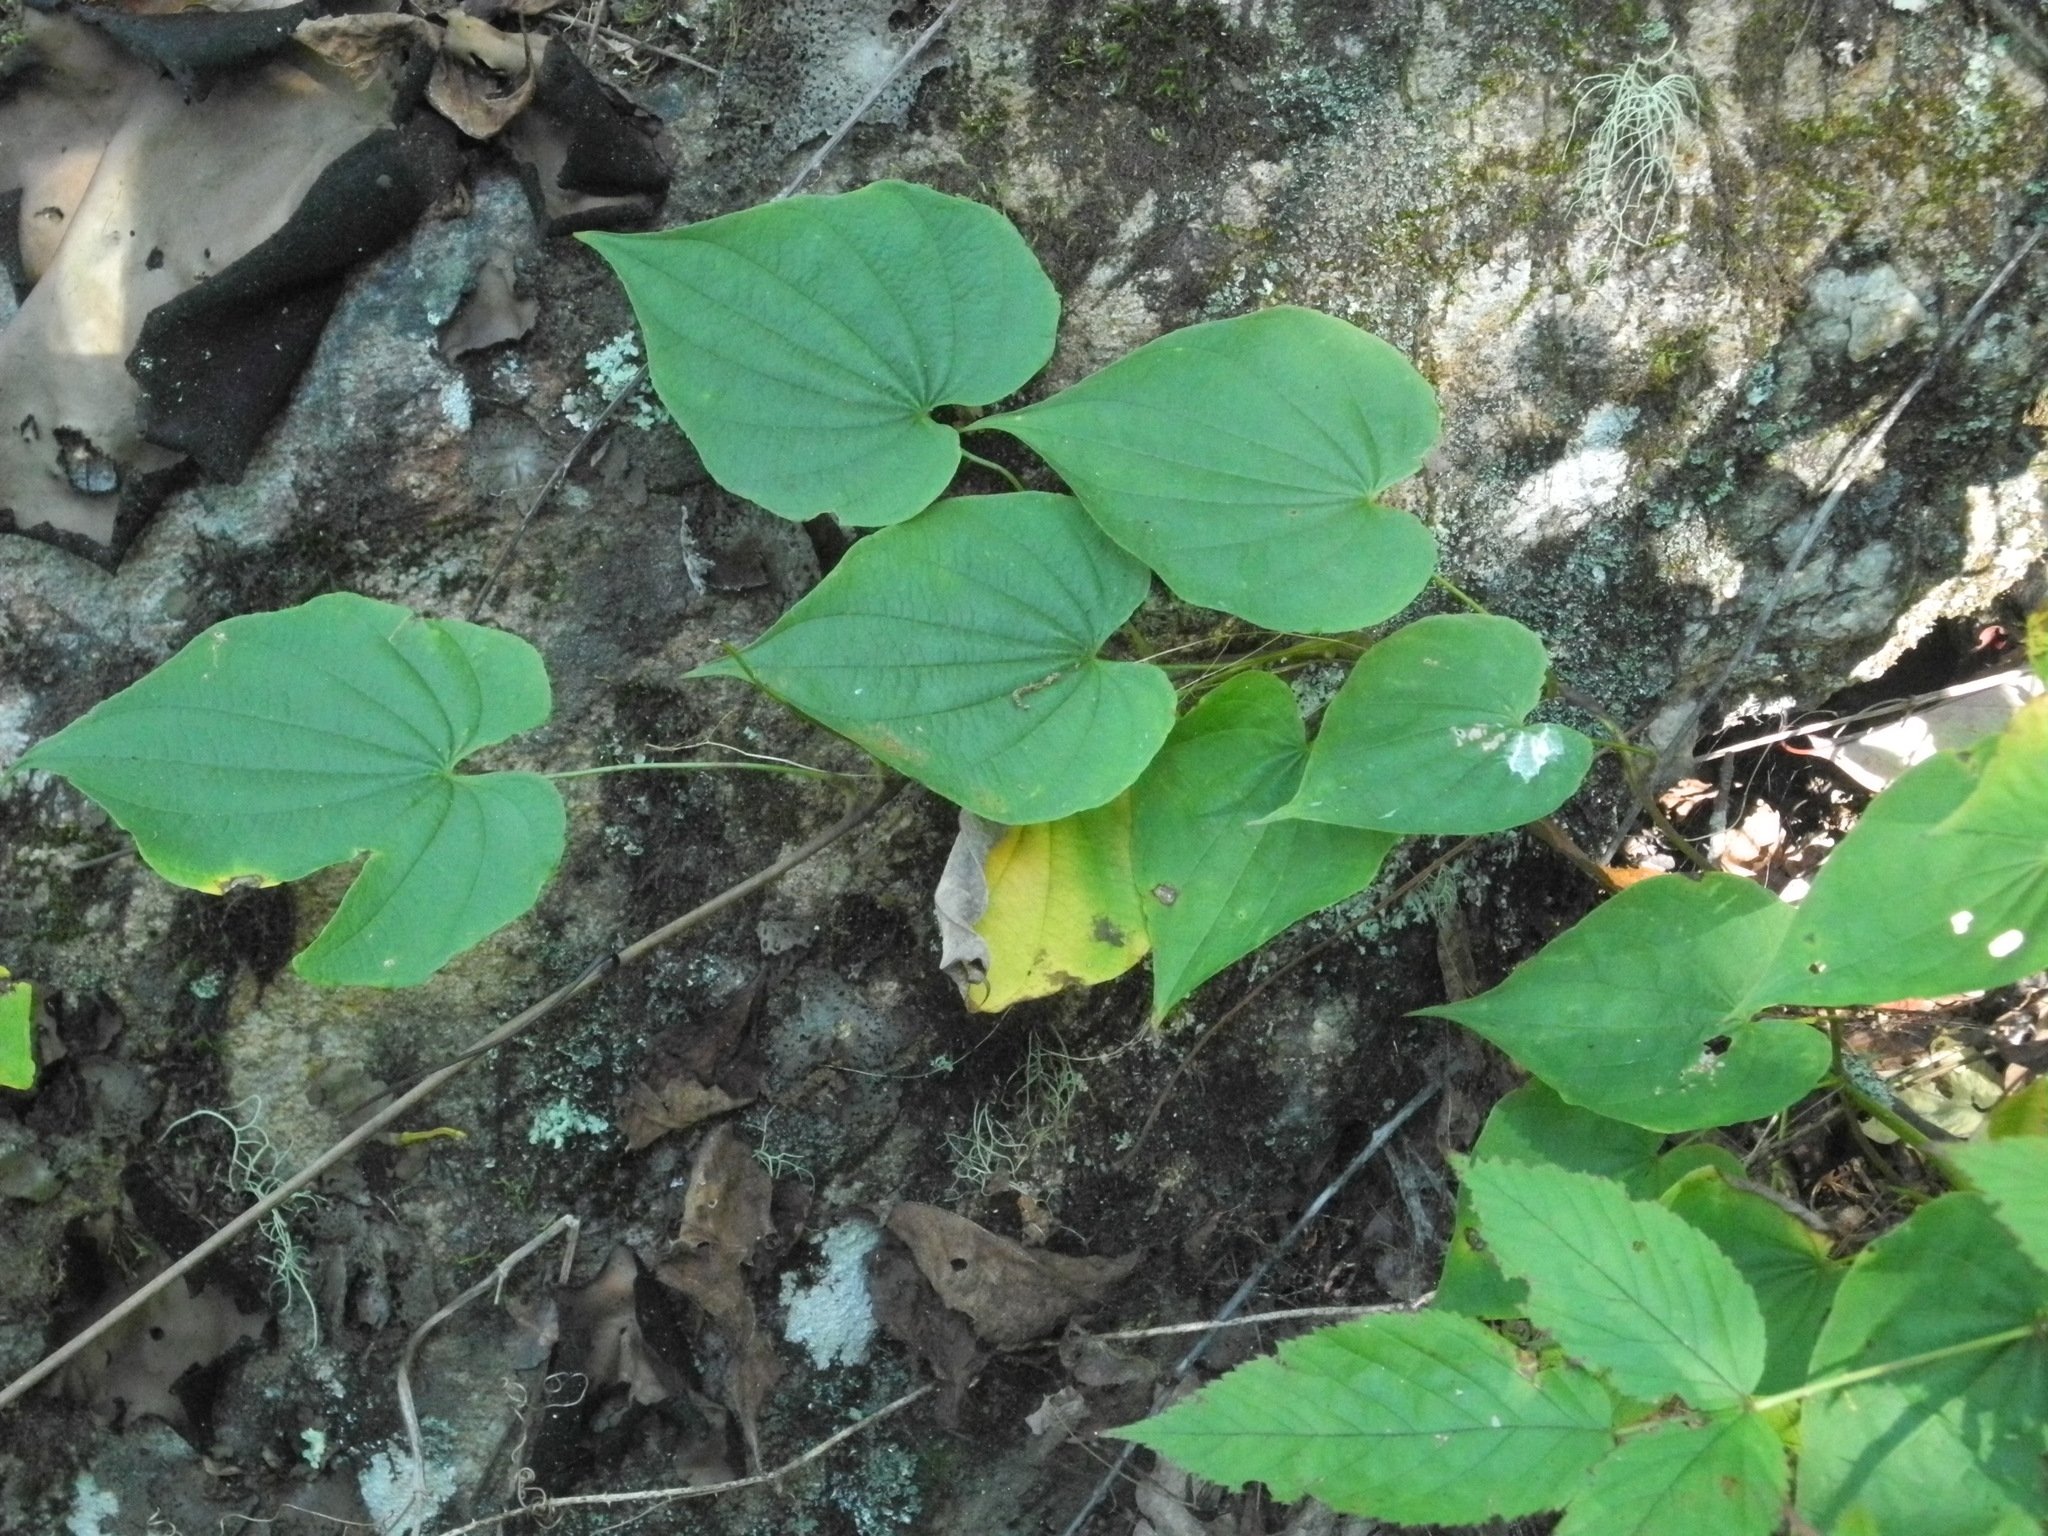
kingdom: Plantae
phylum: Tracheophyta
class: Liliopsida
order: Dioscoreales
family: Dioscoreaceae
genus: Dioscorea
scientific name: Dioscorea villosa
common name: Wild yam
